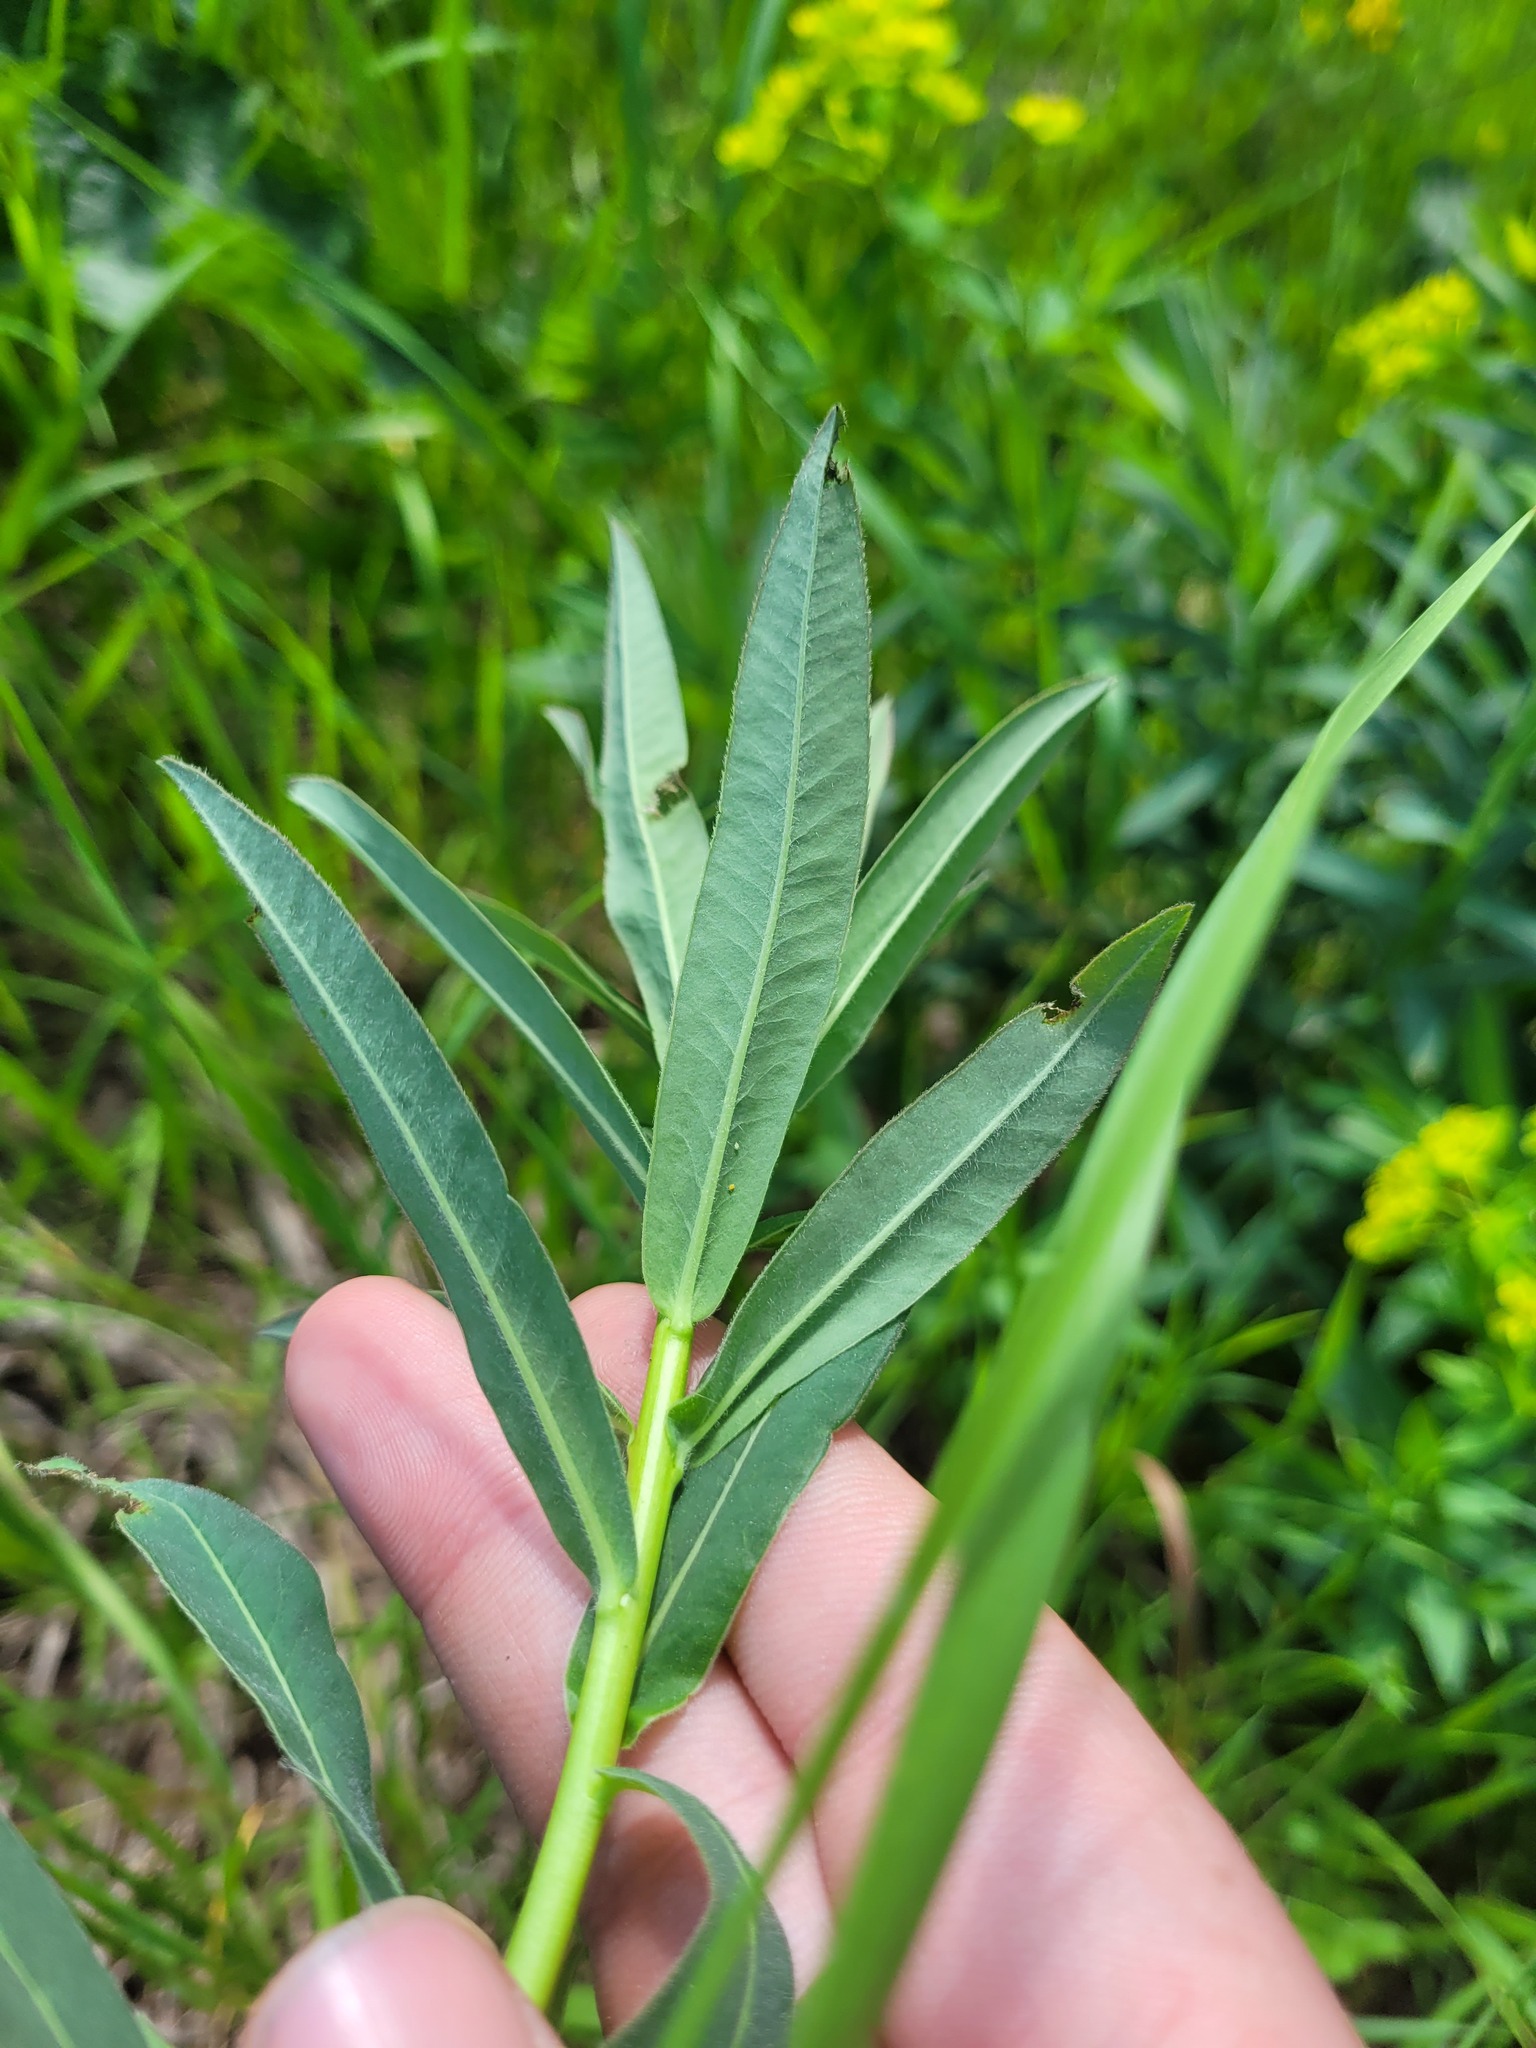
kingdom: Plantae
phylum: Tracheophyta
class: Magnoliopsida
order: Malpighiales
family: Euphorbiaceae
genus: Euphorbia
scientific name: Euphorbia semivillosa
